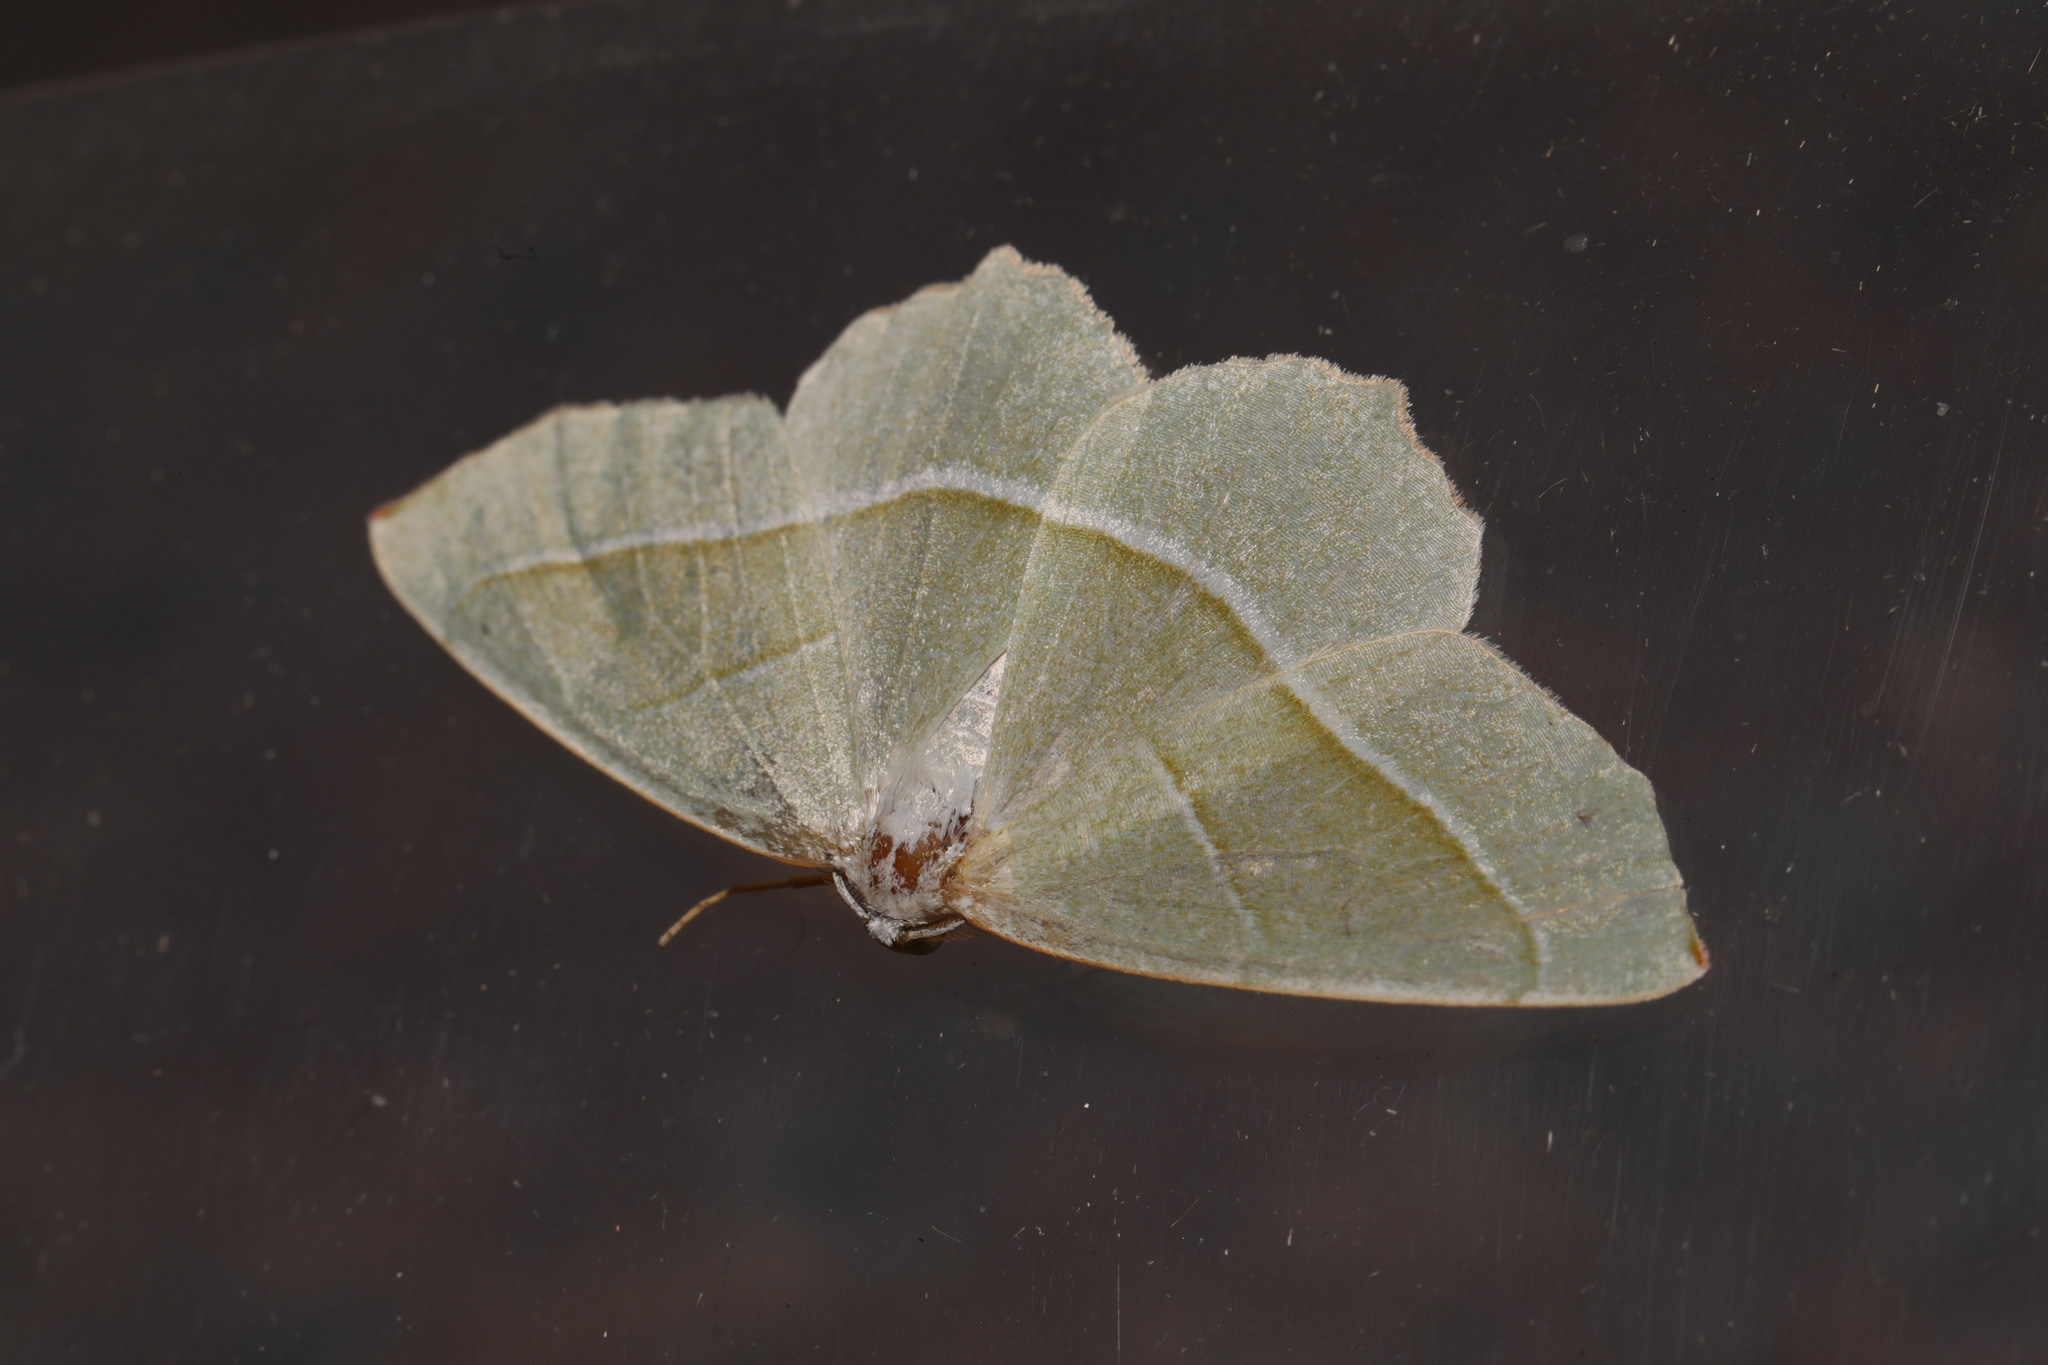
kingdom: Animalia
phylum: Arthropoda
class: Insecta
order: Lepidoptera
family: Geometridae
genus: Campaea
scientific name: Campaea margaritaria
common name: Light emerald
